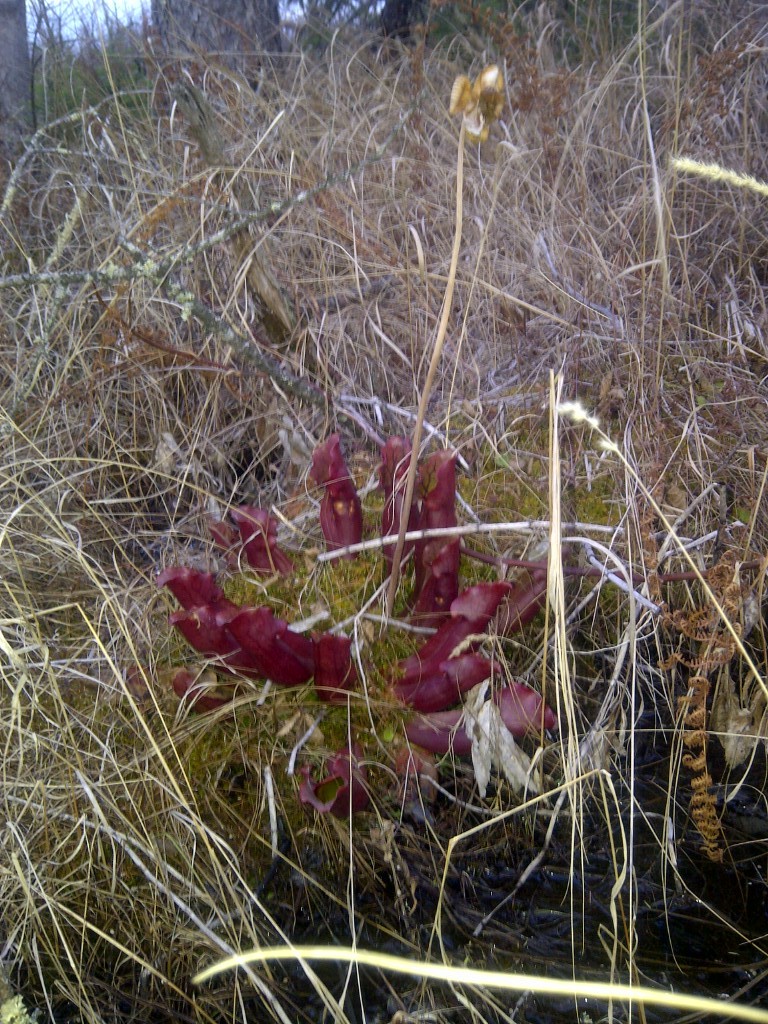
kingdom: Plantae
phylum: Tracheophyta
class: Magnoliopsida
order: Ericales
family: Sarraceniaceae
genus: Sarracenia
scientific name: Sarracenia purpurea
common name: Pitcherplant
